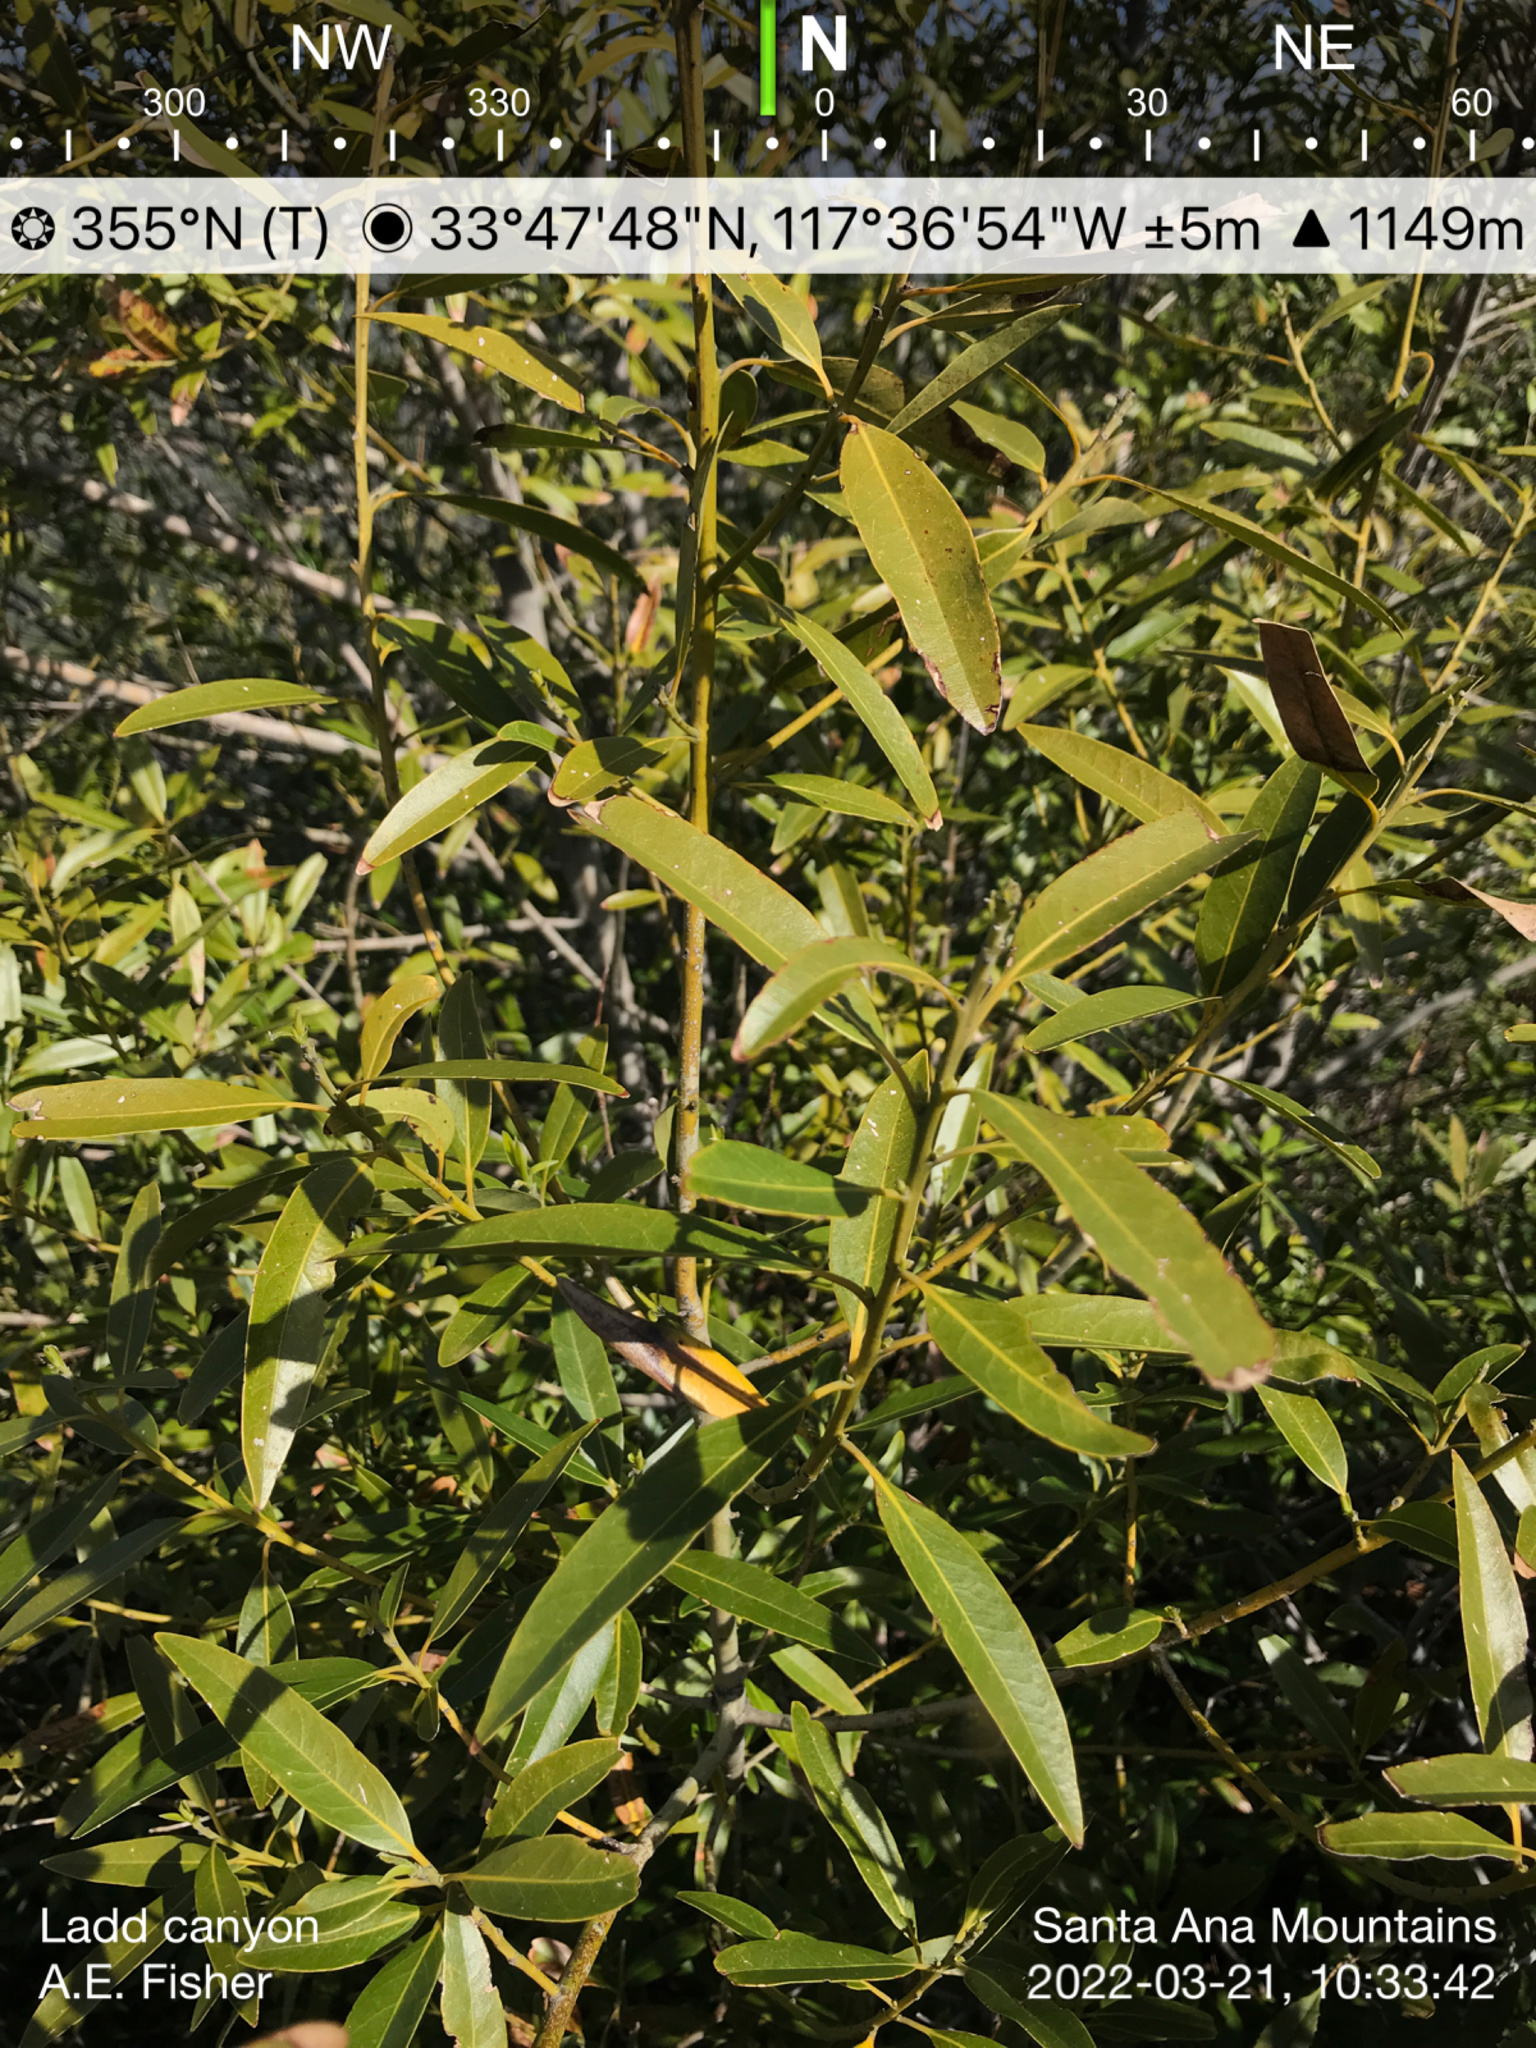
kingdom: Plantae
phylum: Tracheophyta
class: Magnoliopsida
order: Laurales
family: Lauraceae
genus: Umbellularia
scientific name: Umbellularia californica
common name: California bay
